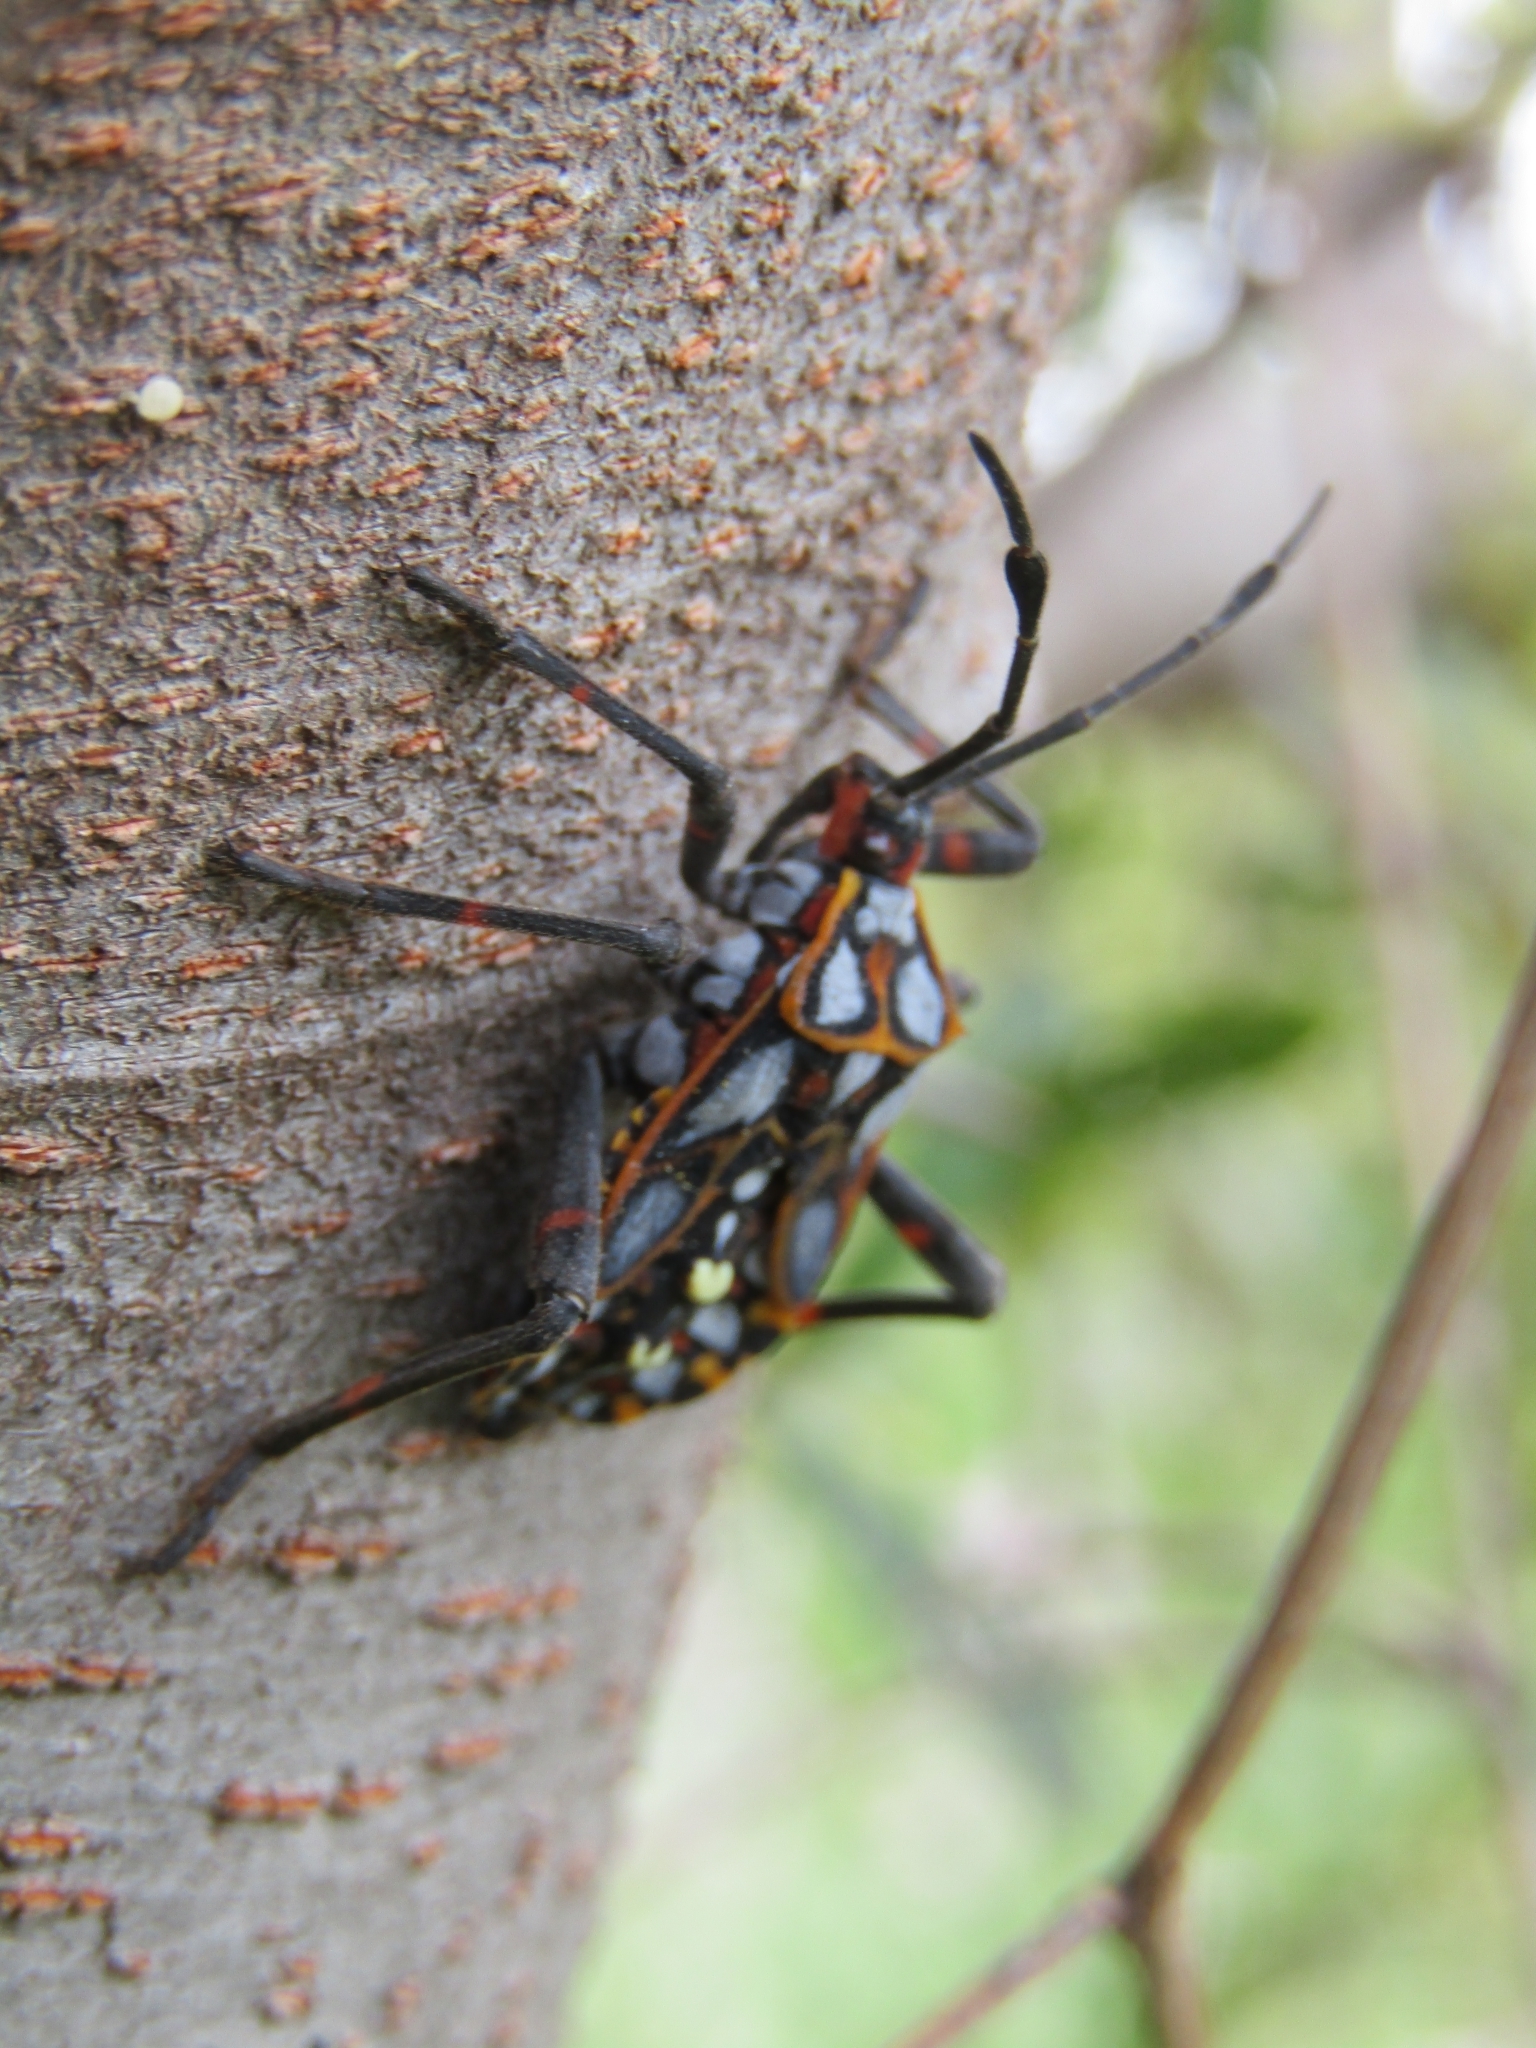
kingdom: Animalia
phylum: Arthropoda
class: Insecta
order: Hemiptera
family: Coreidae
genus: Pachylis
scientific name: Pachylis argentinus
